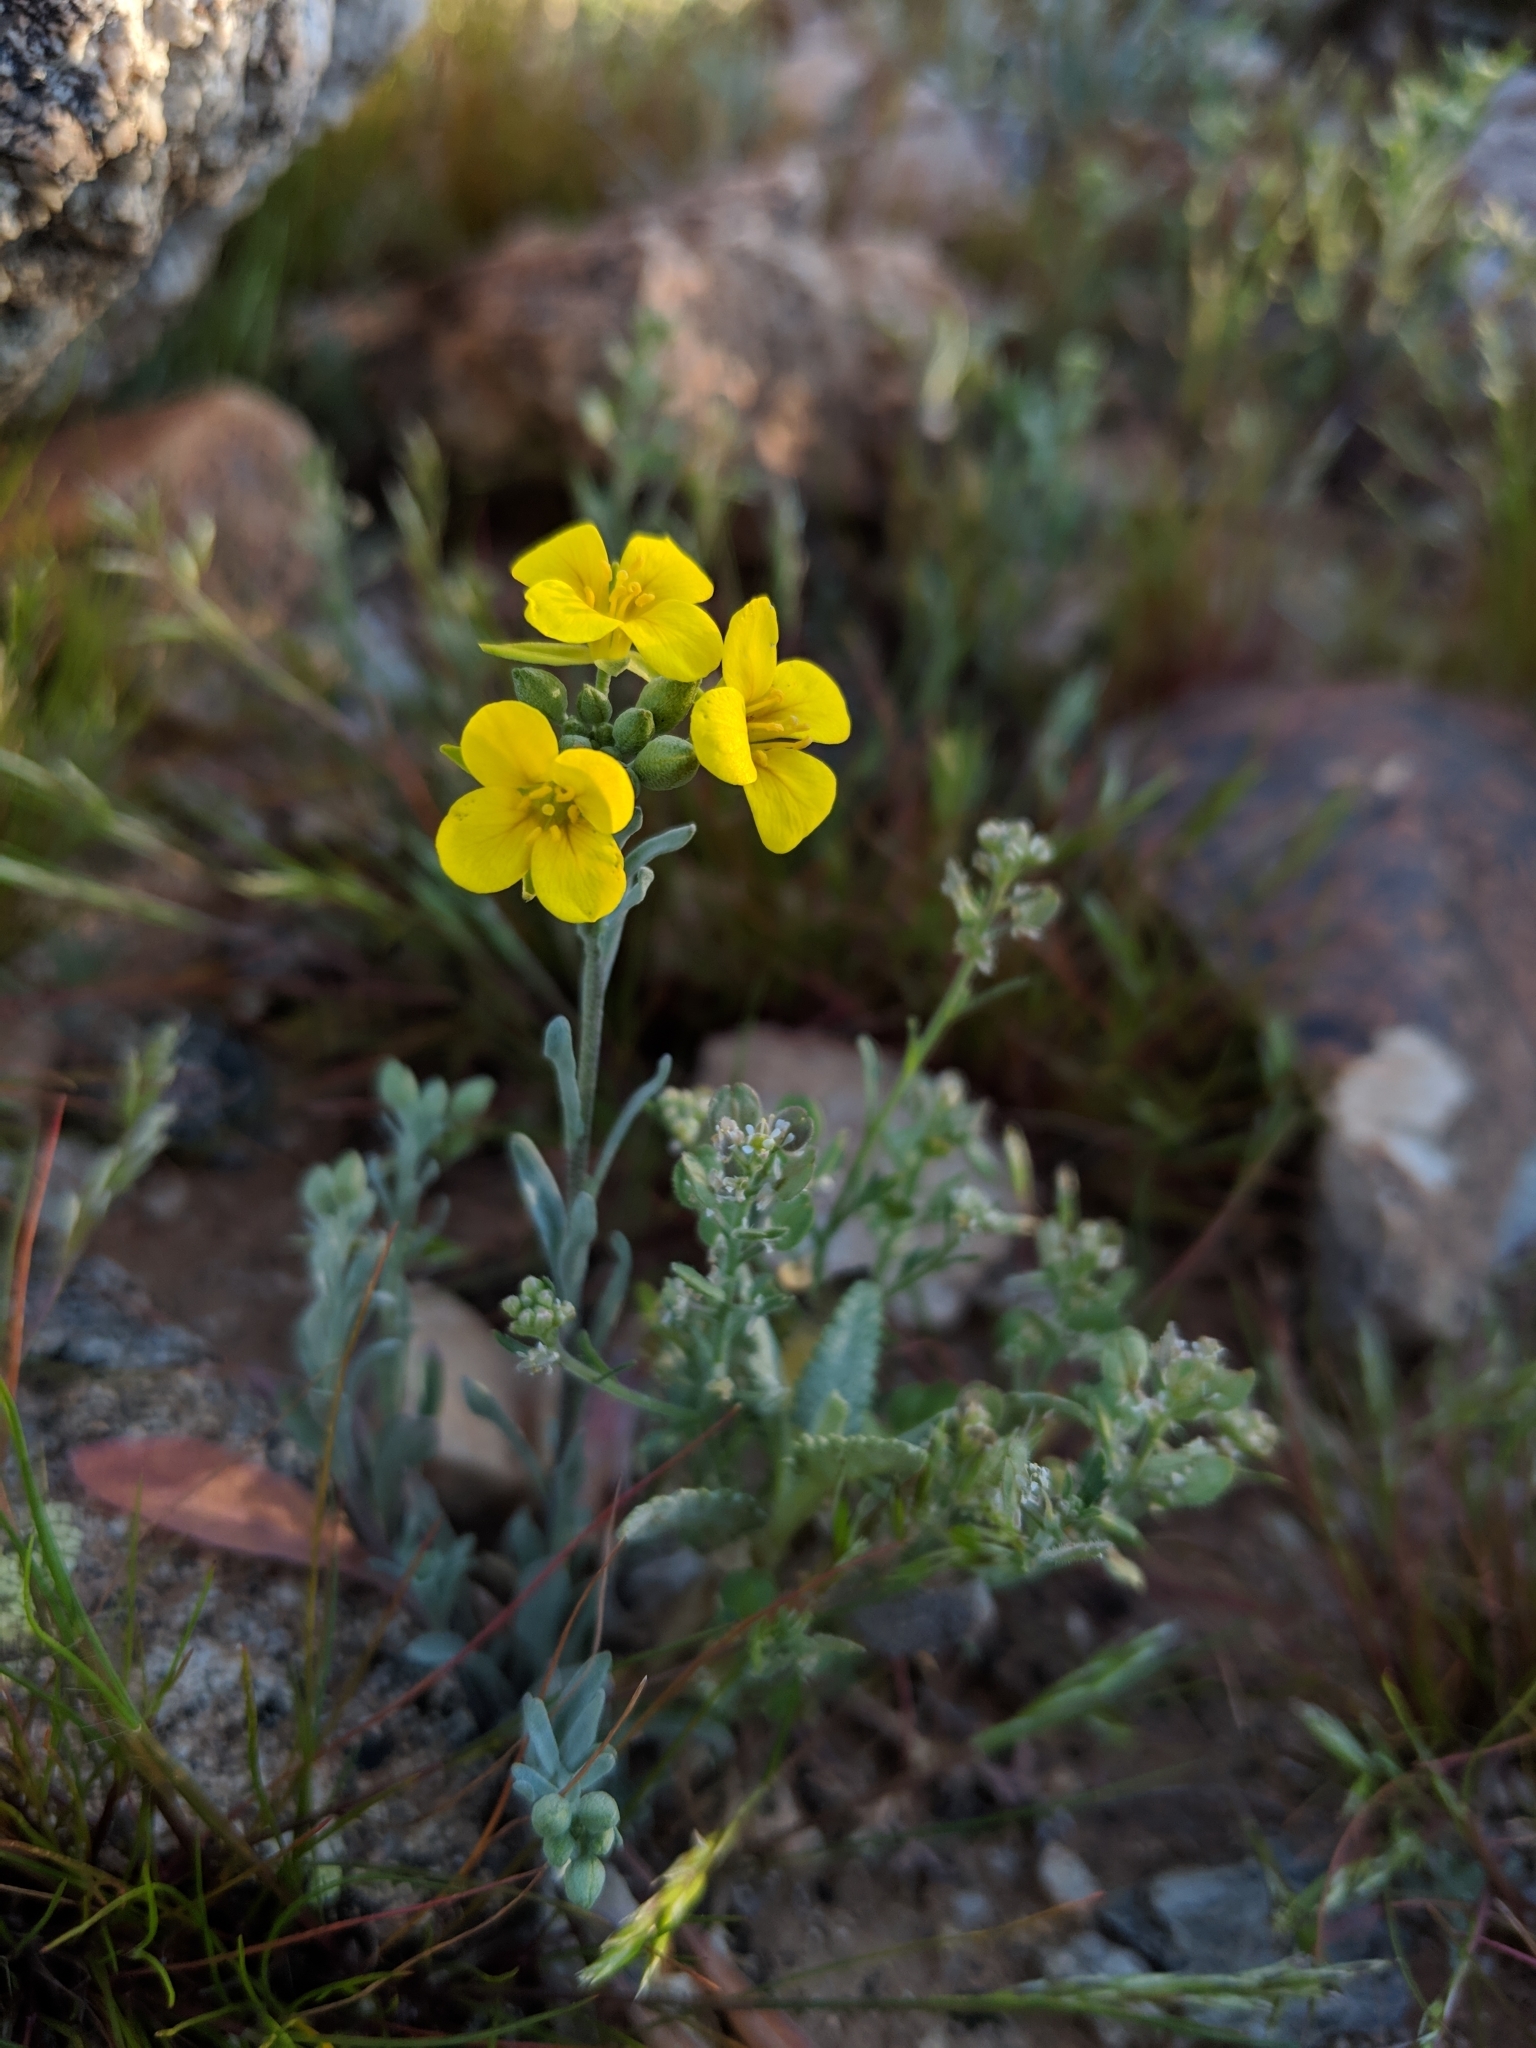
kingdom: Plantae
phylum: Tracheophyta
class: Magnoliopsida
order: Brassicales
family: Brassicaceae
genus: Physaria
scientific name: Physaria
